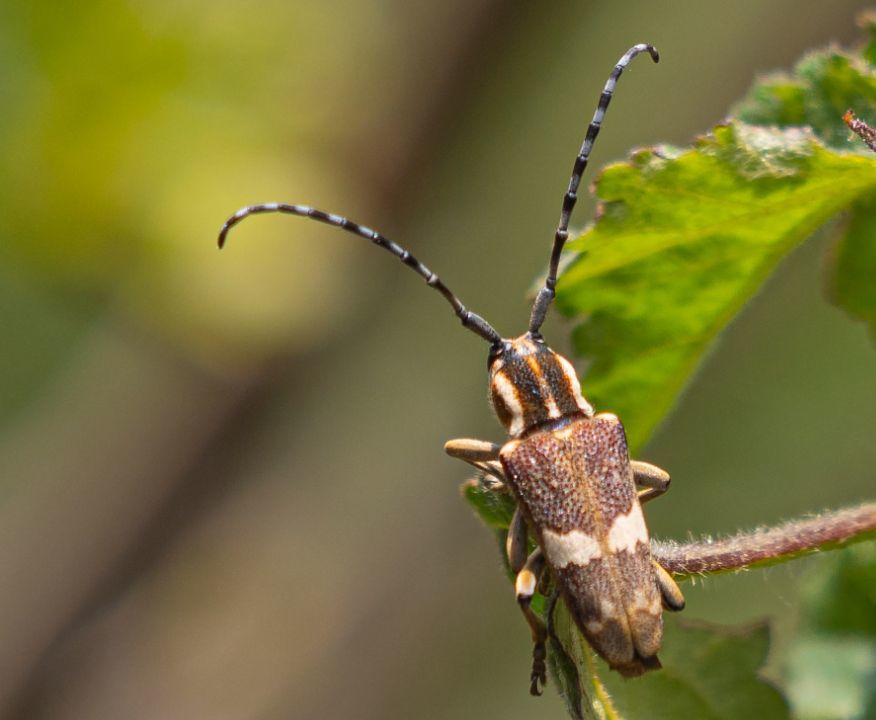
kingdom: Animalia
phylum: Arthropoda
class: Insecta
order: Coleoptera
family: Cerambycidae
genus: Glenea
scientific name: Glenea apicalis
